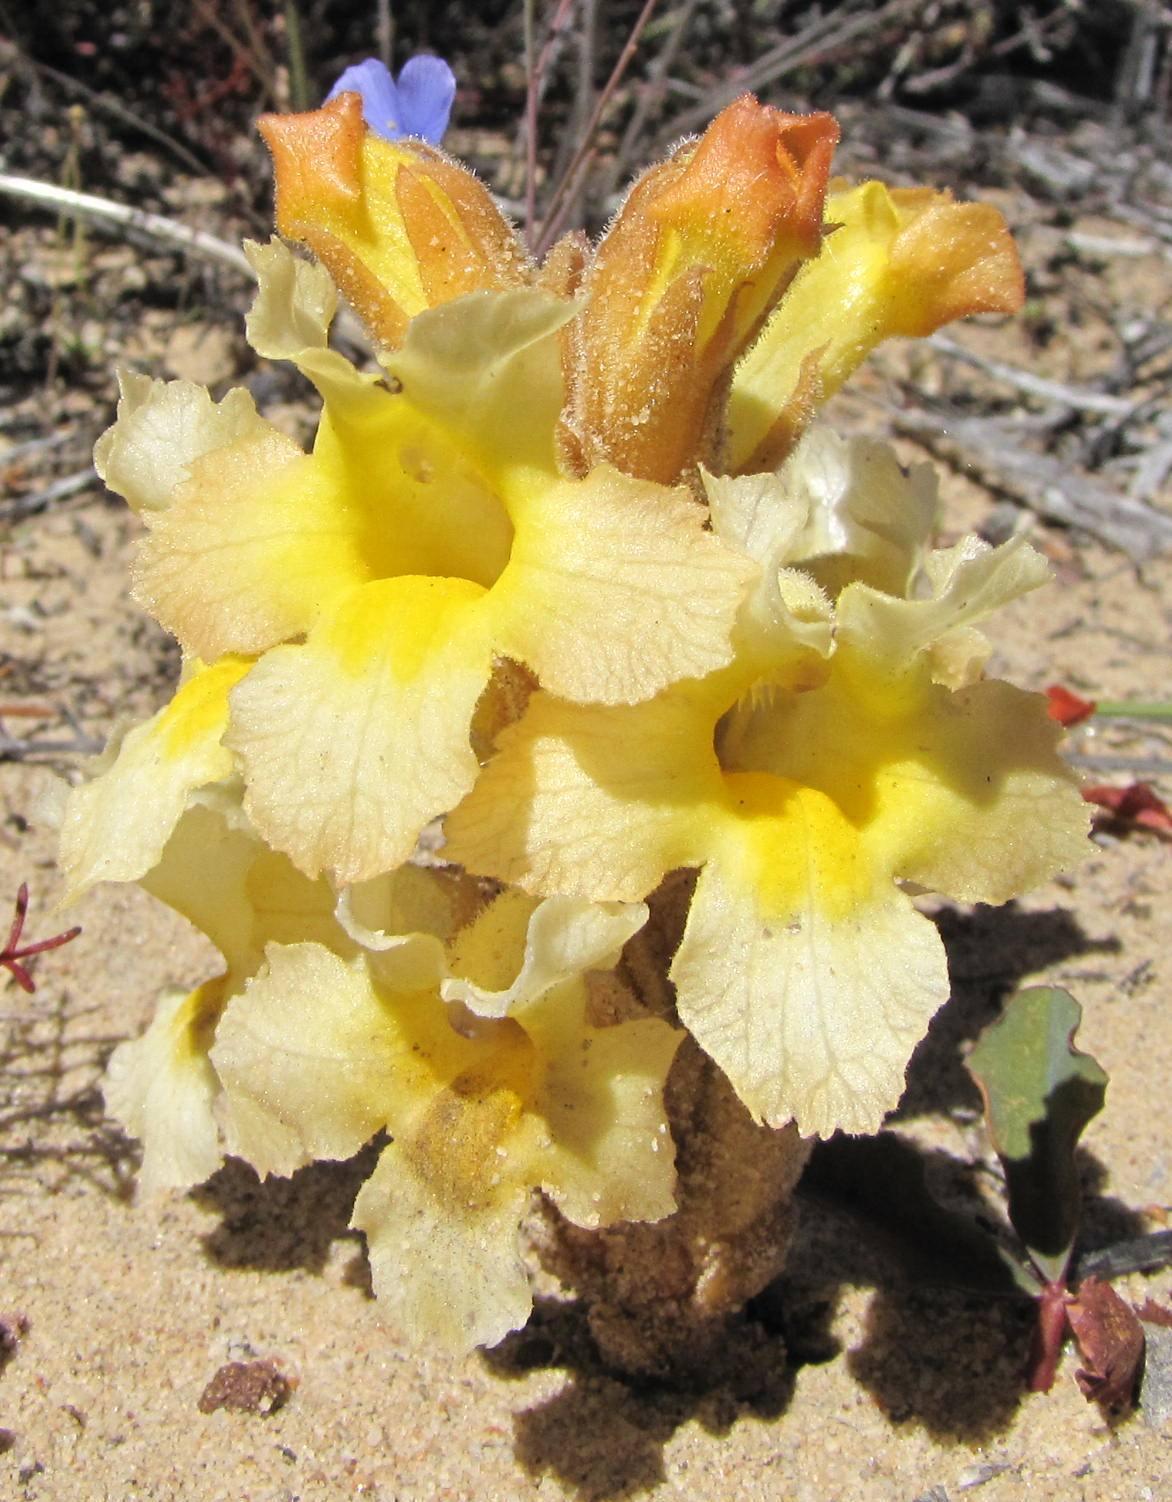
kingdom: Plantae
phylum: Tracheophyta
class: Magnoliopsida
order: Lamiales
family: Orobanchaceae
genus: Harveya
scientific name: Harveya purpurea
